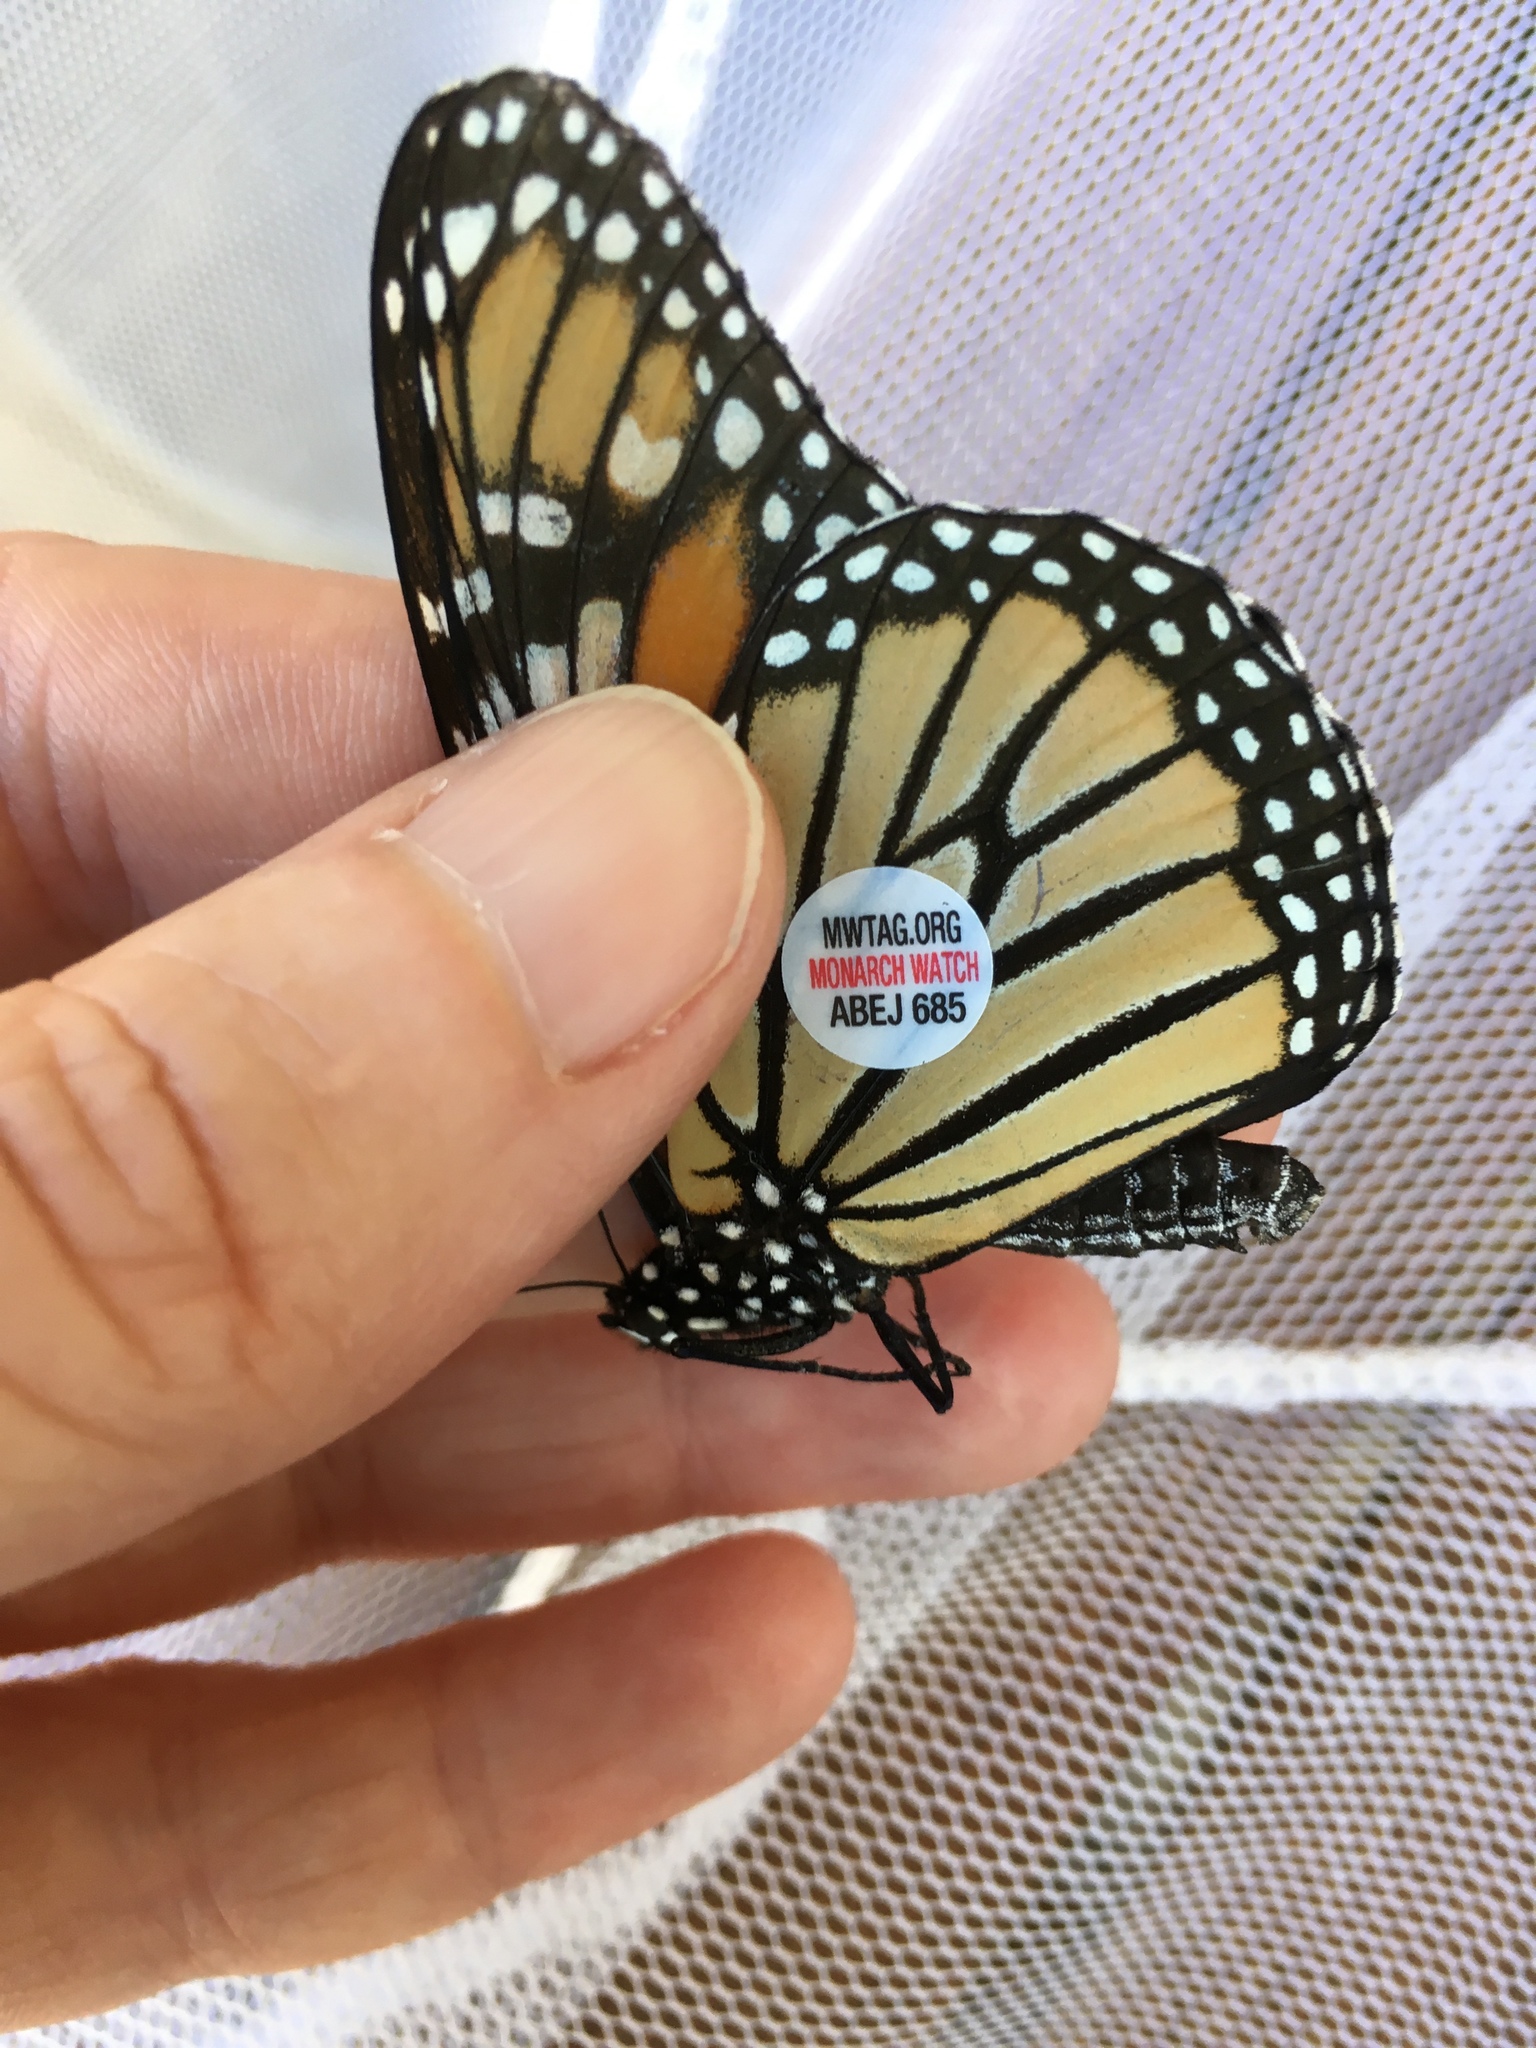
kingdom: Animalia
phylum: Arthropoda
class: Insecta
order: Lepidoptera
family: Nymphalidae
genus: Danaus
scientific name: Danaus plexippus
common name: Monarch
